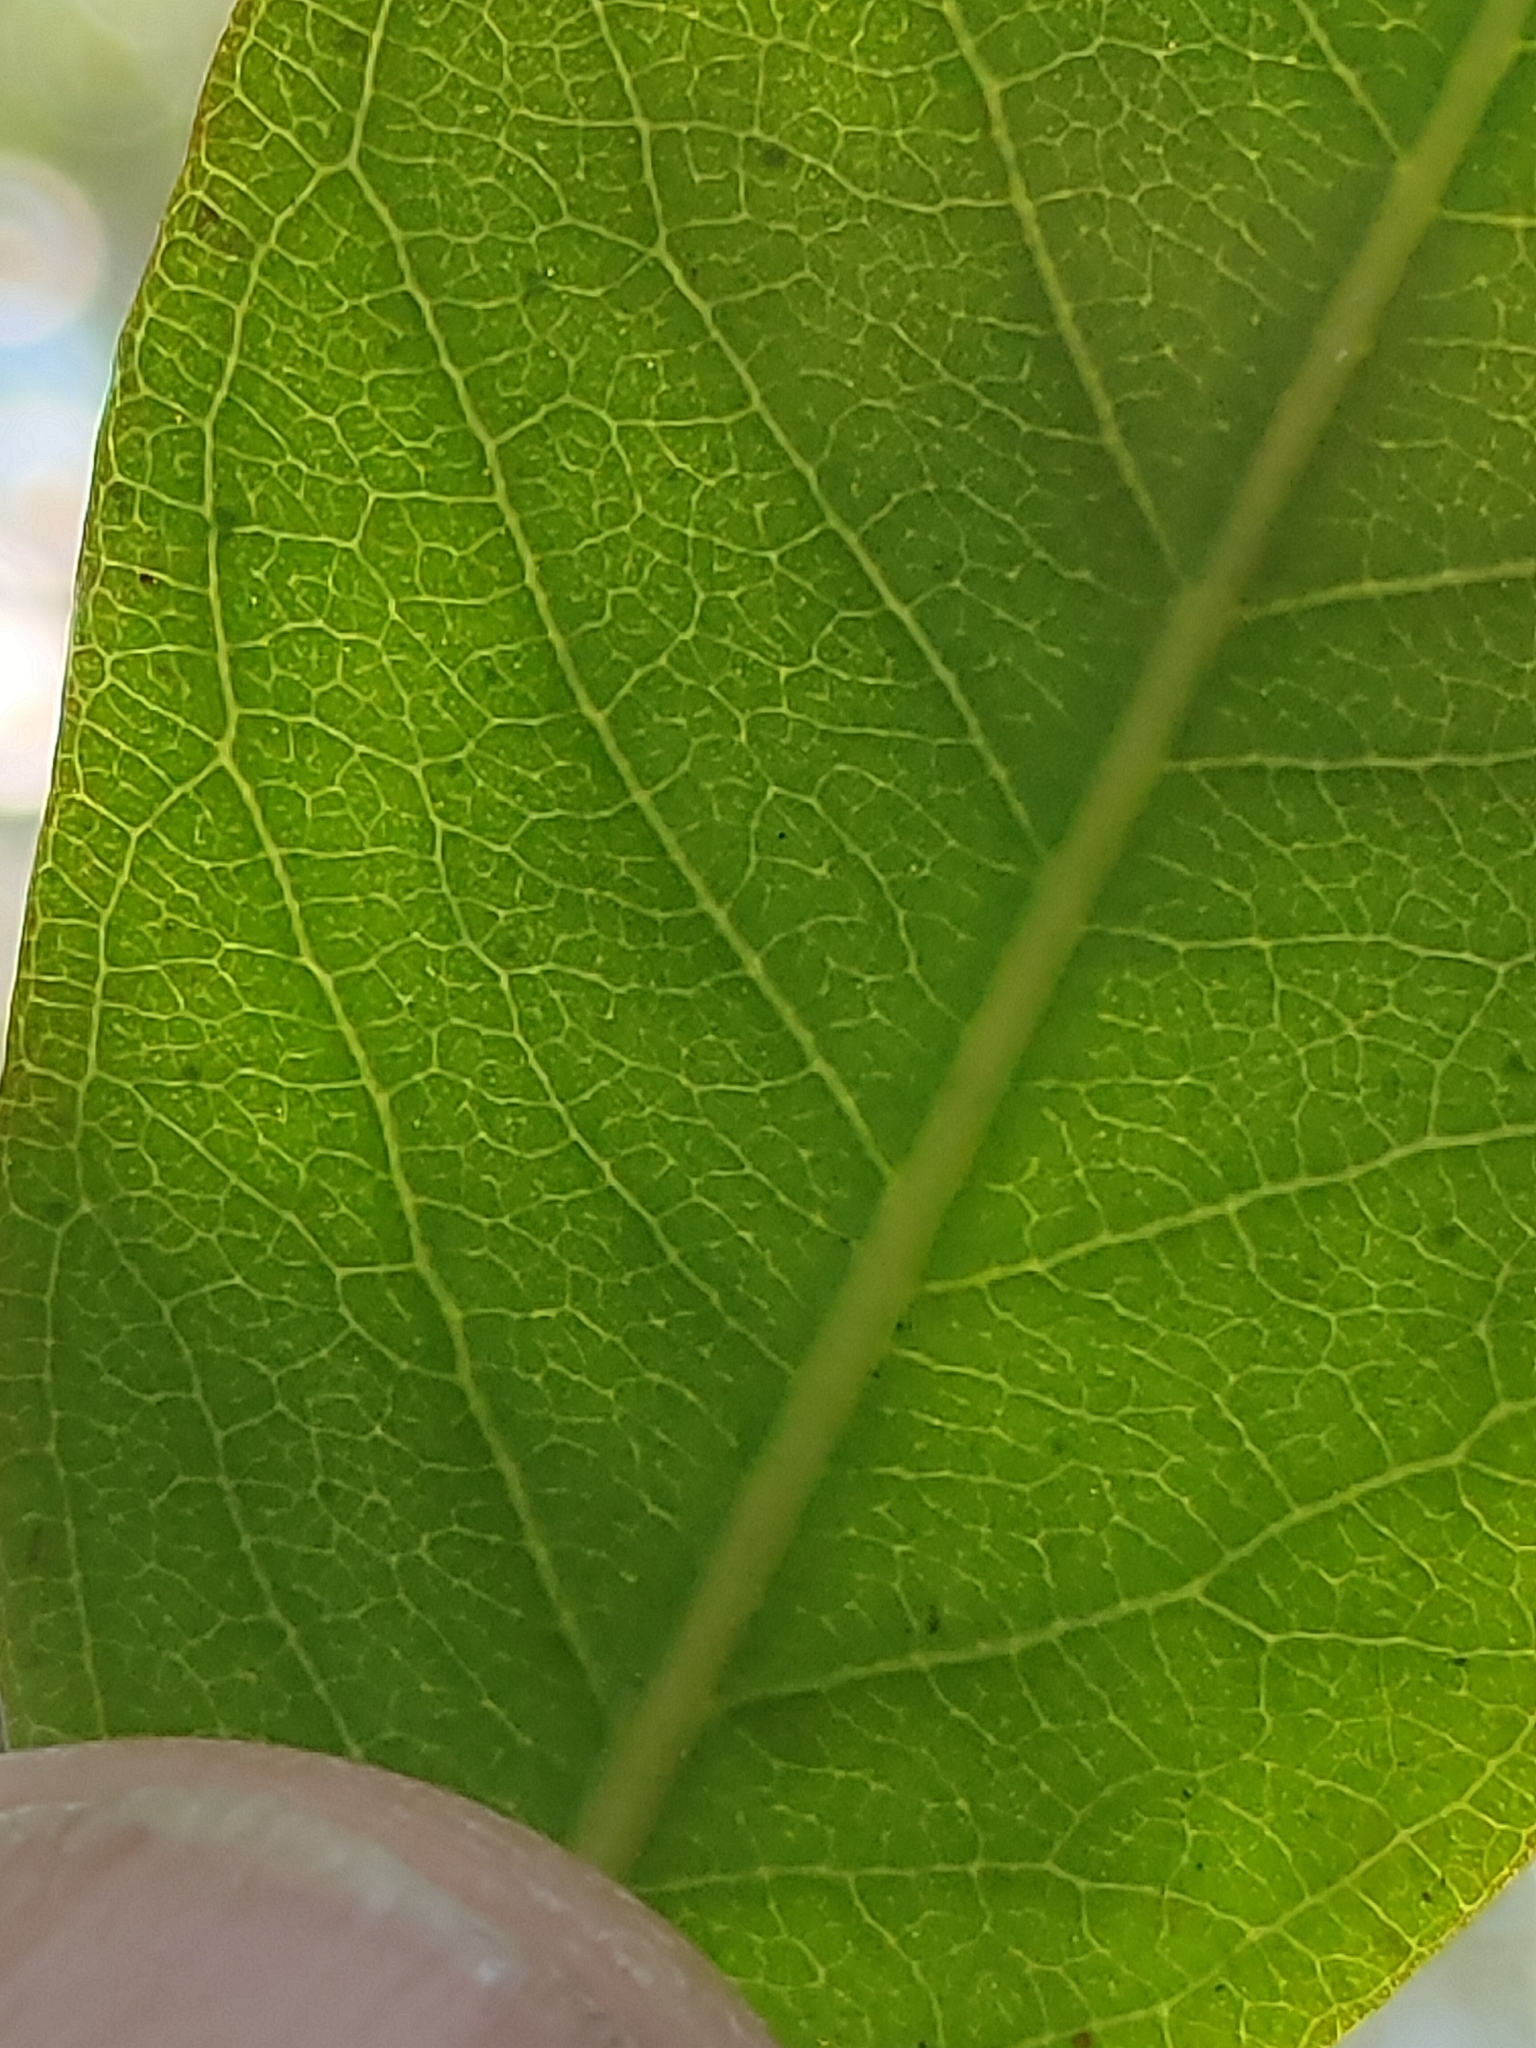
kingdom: Plantae
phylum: Tracheophyta
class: Magnoliopsida
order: Myrtales
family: Myrtaceae
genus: Backhousia
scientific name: Backhousia subargentea
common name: Giant ironwood
